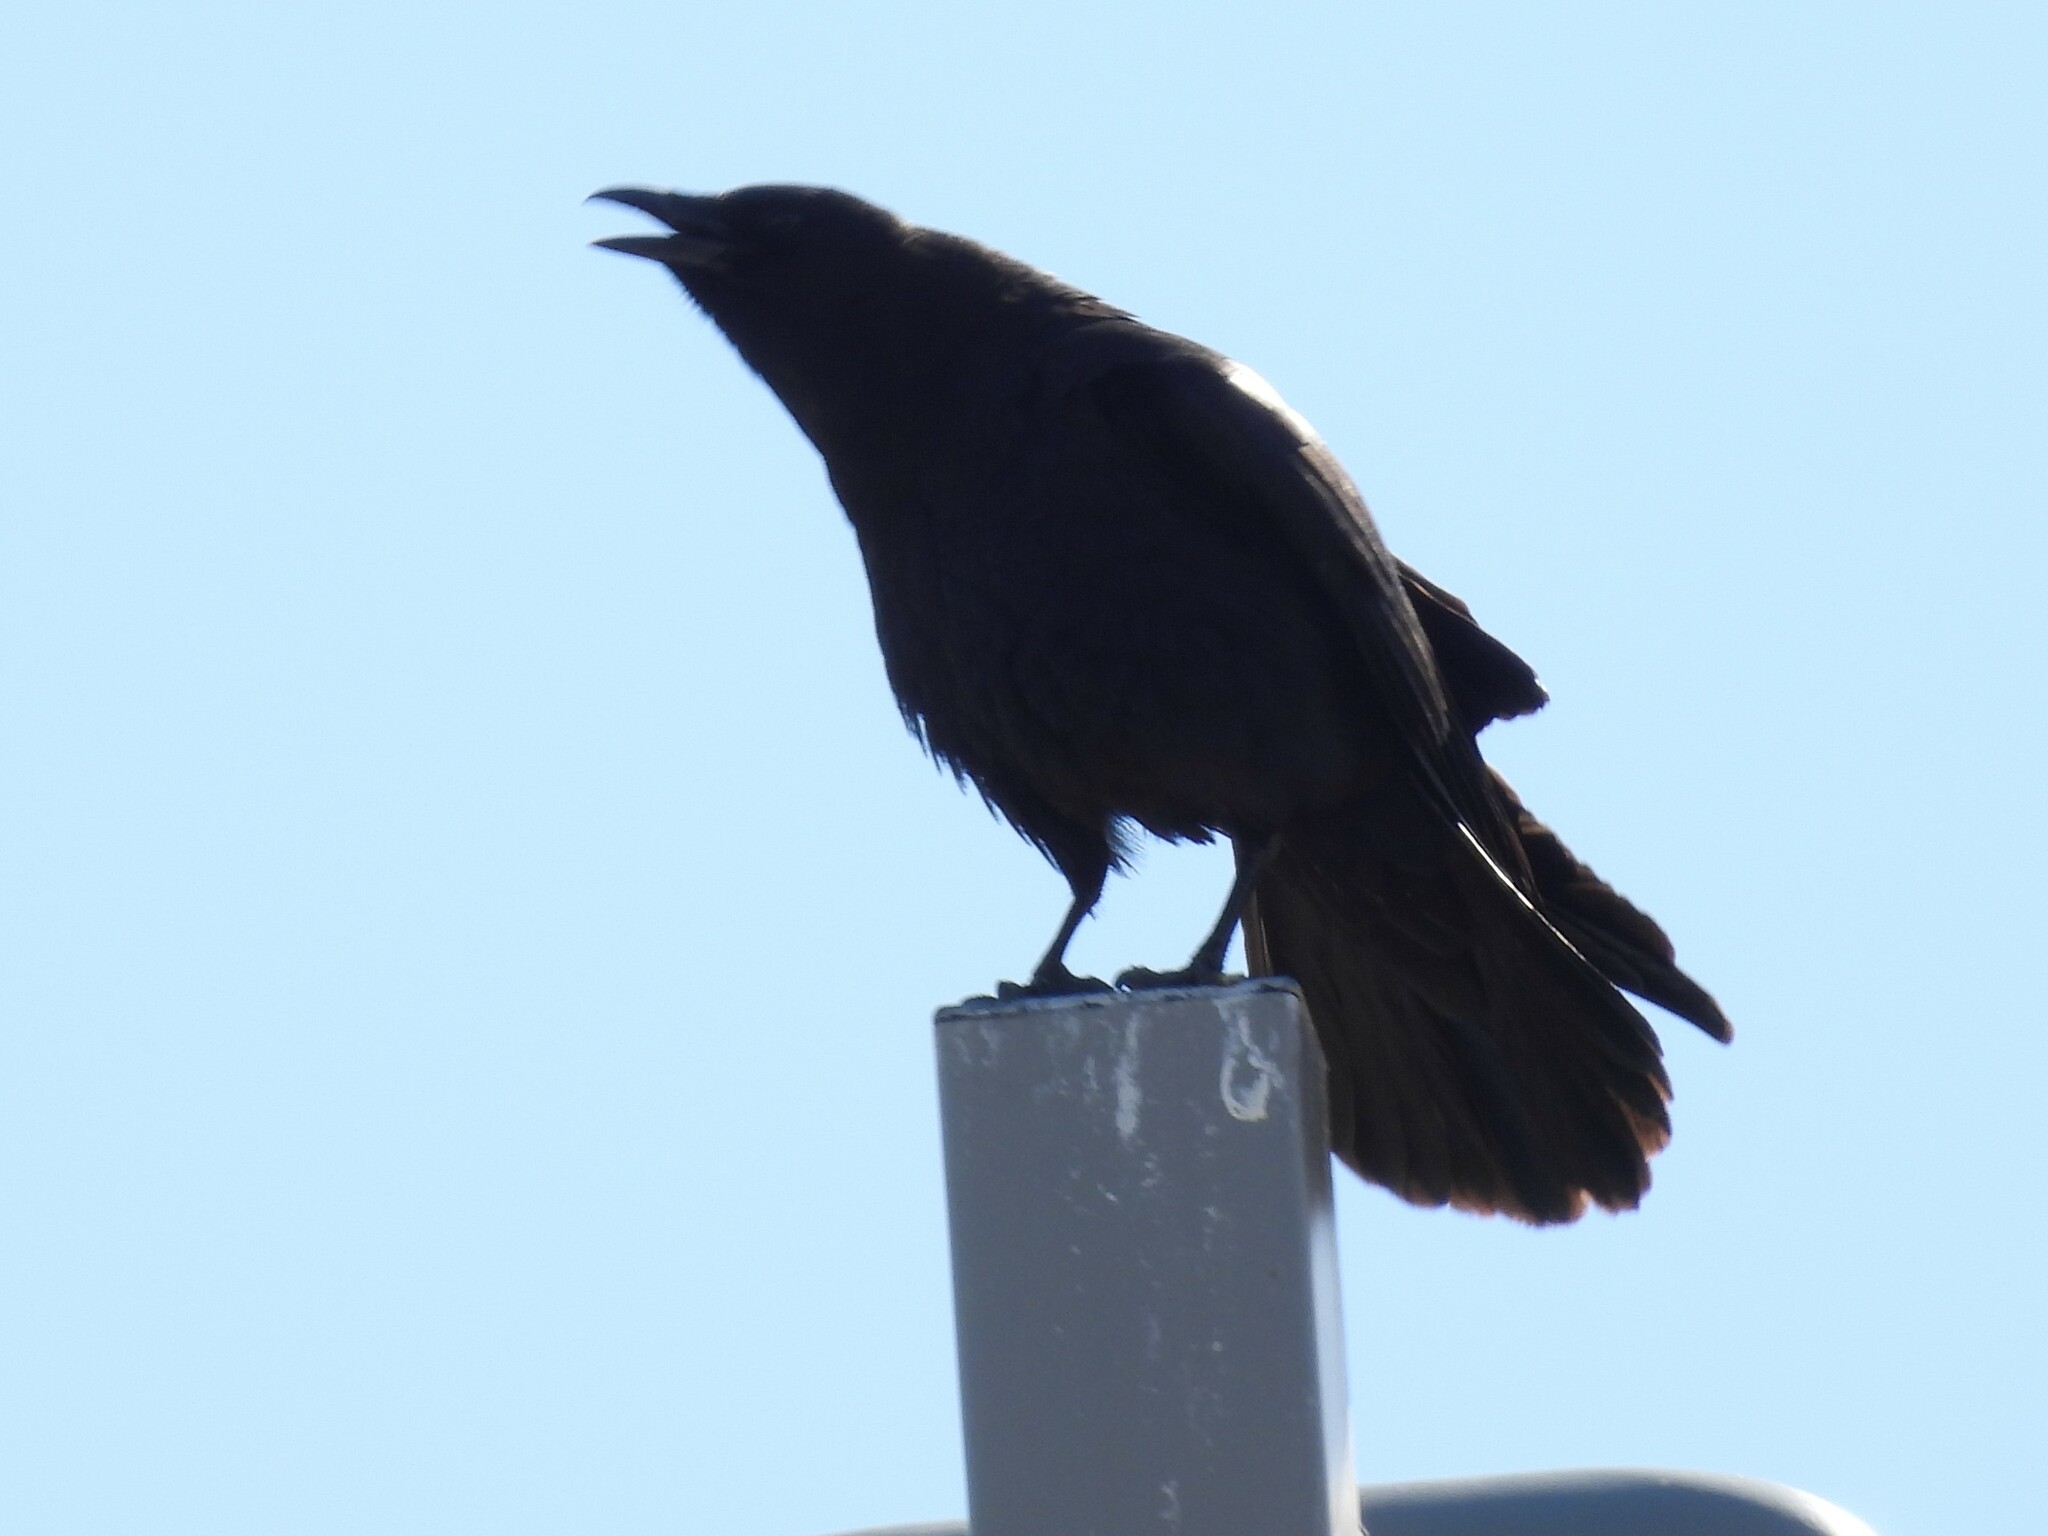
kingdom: Animalia
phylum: Chordata
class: Aves
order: Passeriformes
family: Corvidae
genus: Corvus
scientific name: Corvus brachyrhynchos
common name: American crow
